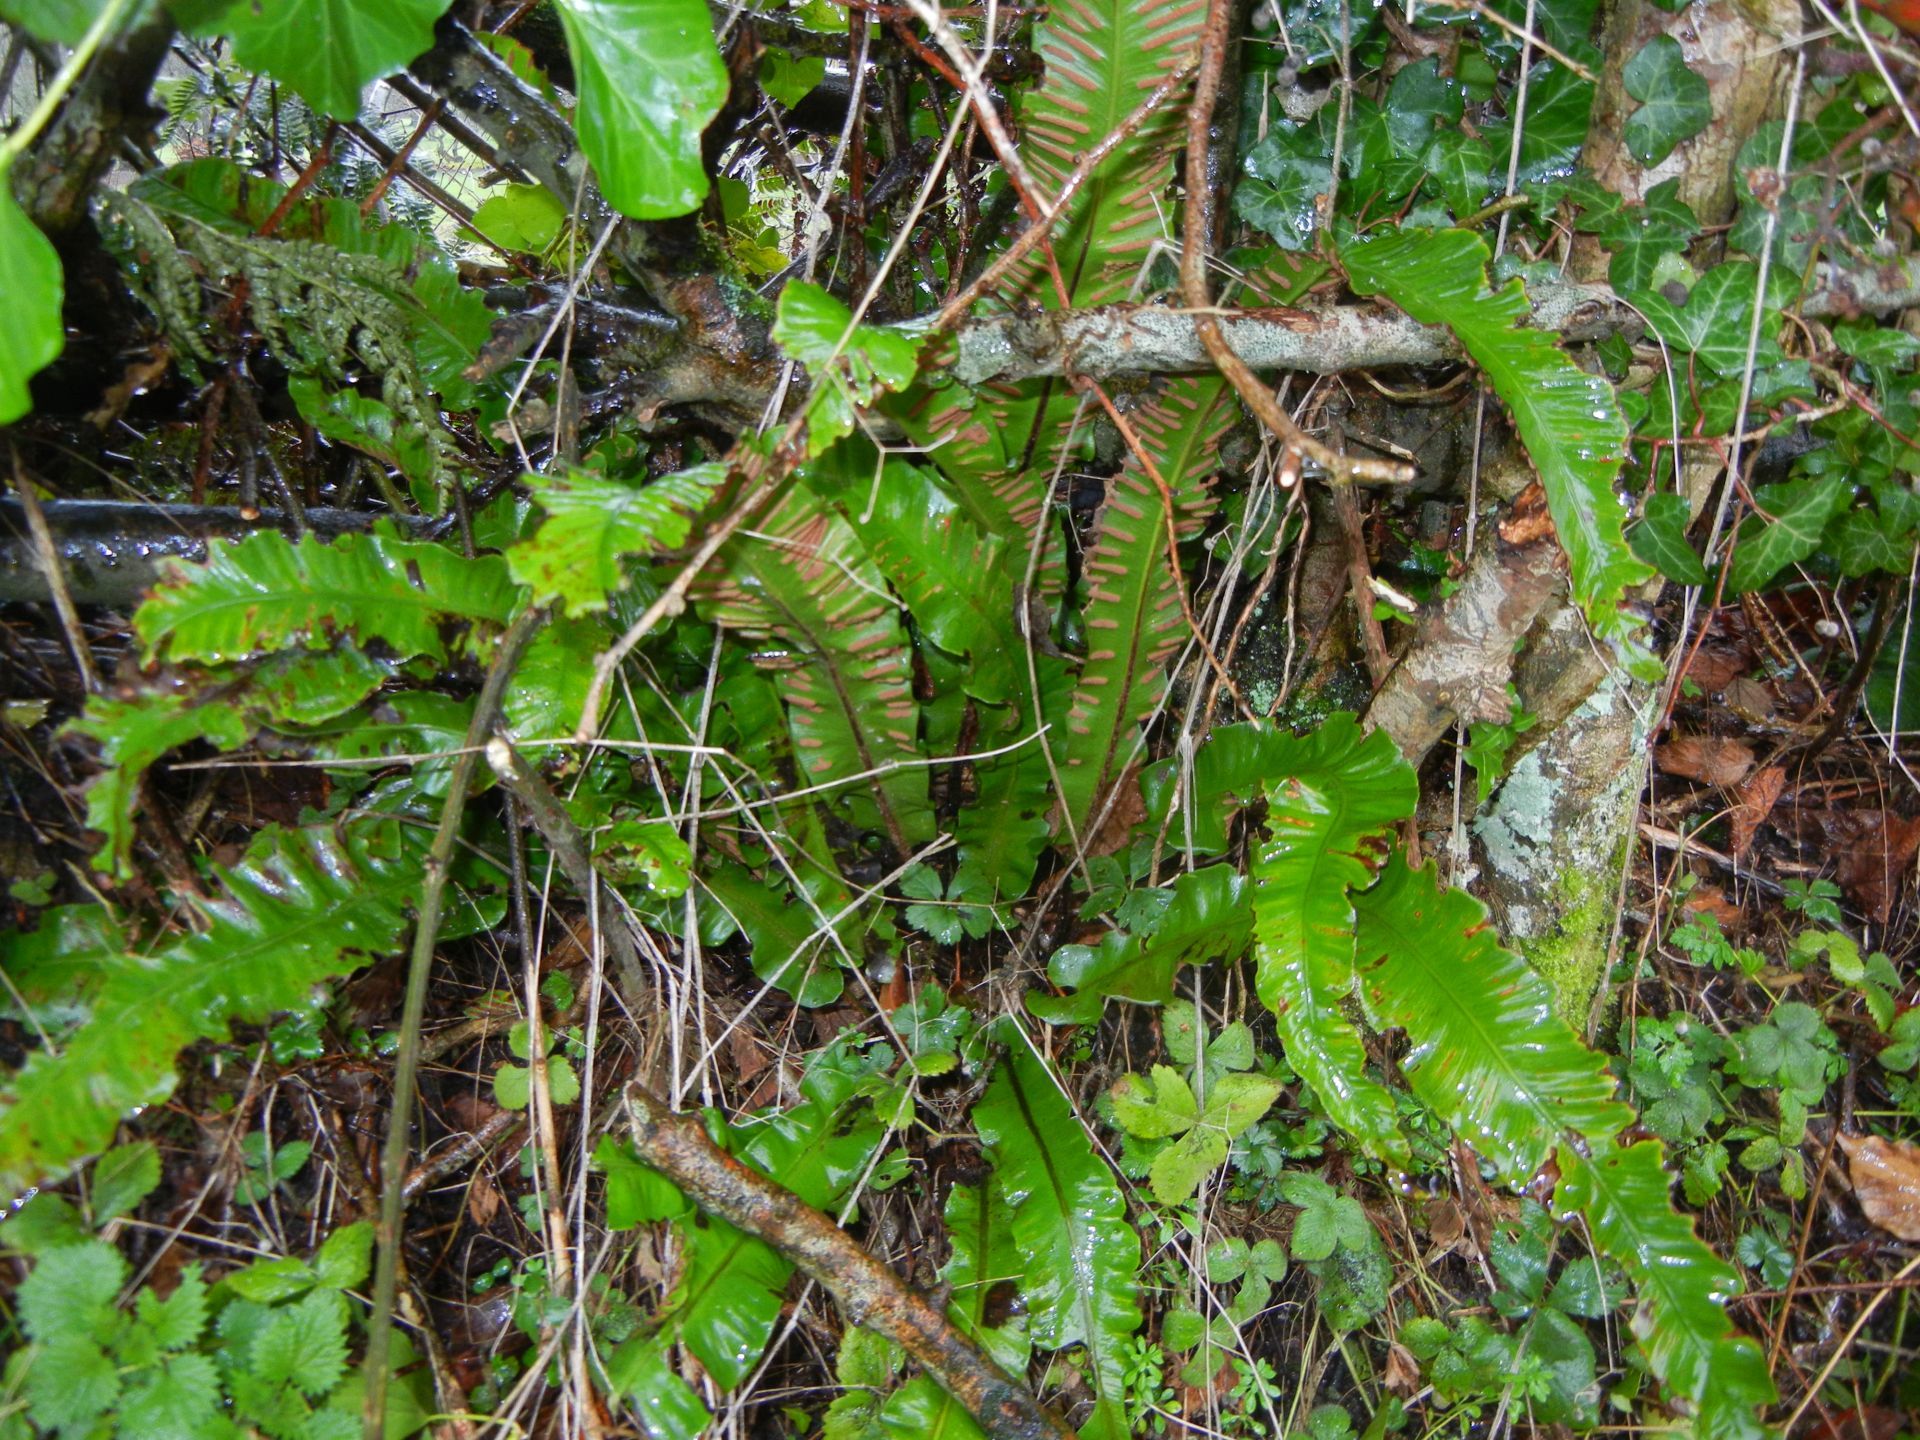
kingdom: Plantae
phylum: Tracheophyta
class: Polypodiopsida
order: Polypodiales
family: Aspleniaceae
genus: Asplenium
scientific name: Asplenium scolopendrium
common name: Hart's-tongue fern
